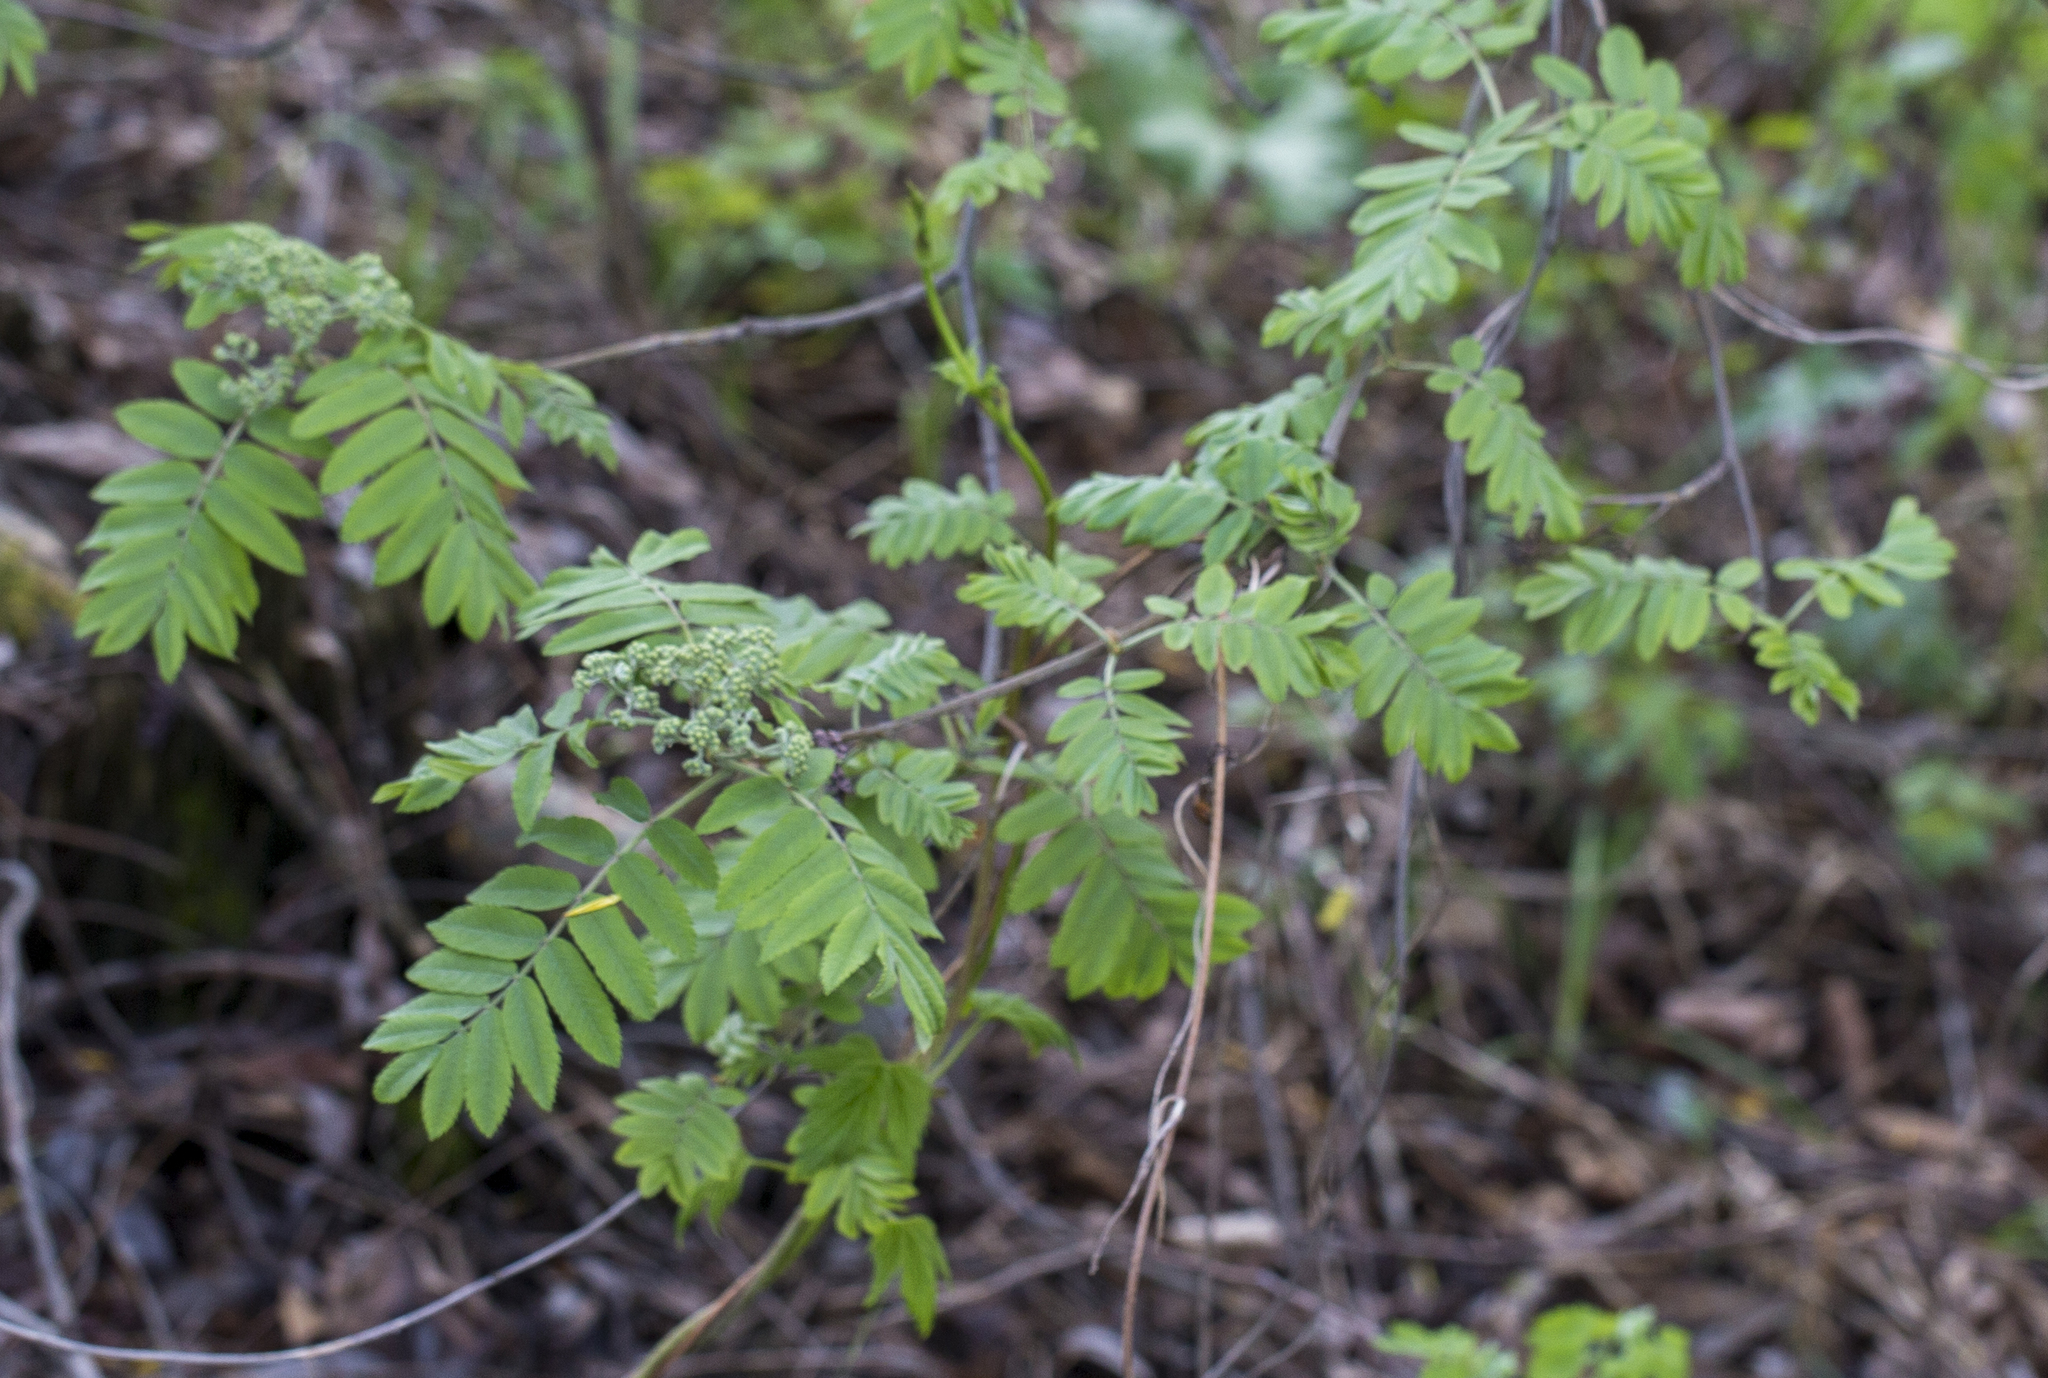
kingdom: Plantae
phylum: Tracheophyta
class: Magnoliopsida
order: Rosales
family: Rosaceae
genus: Sorbus
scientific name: Sorbus aucuparia
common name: Rowan
